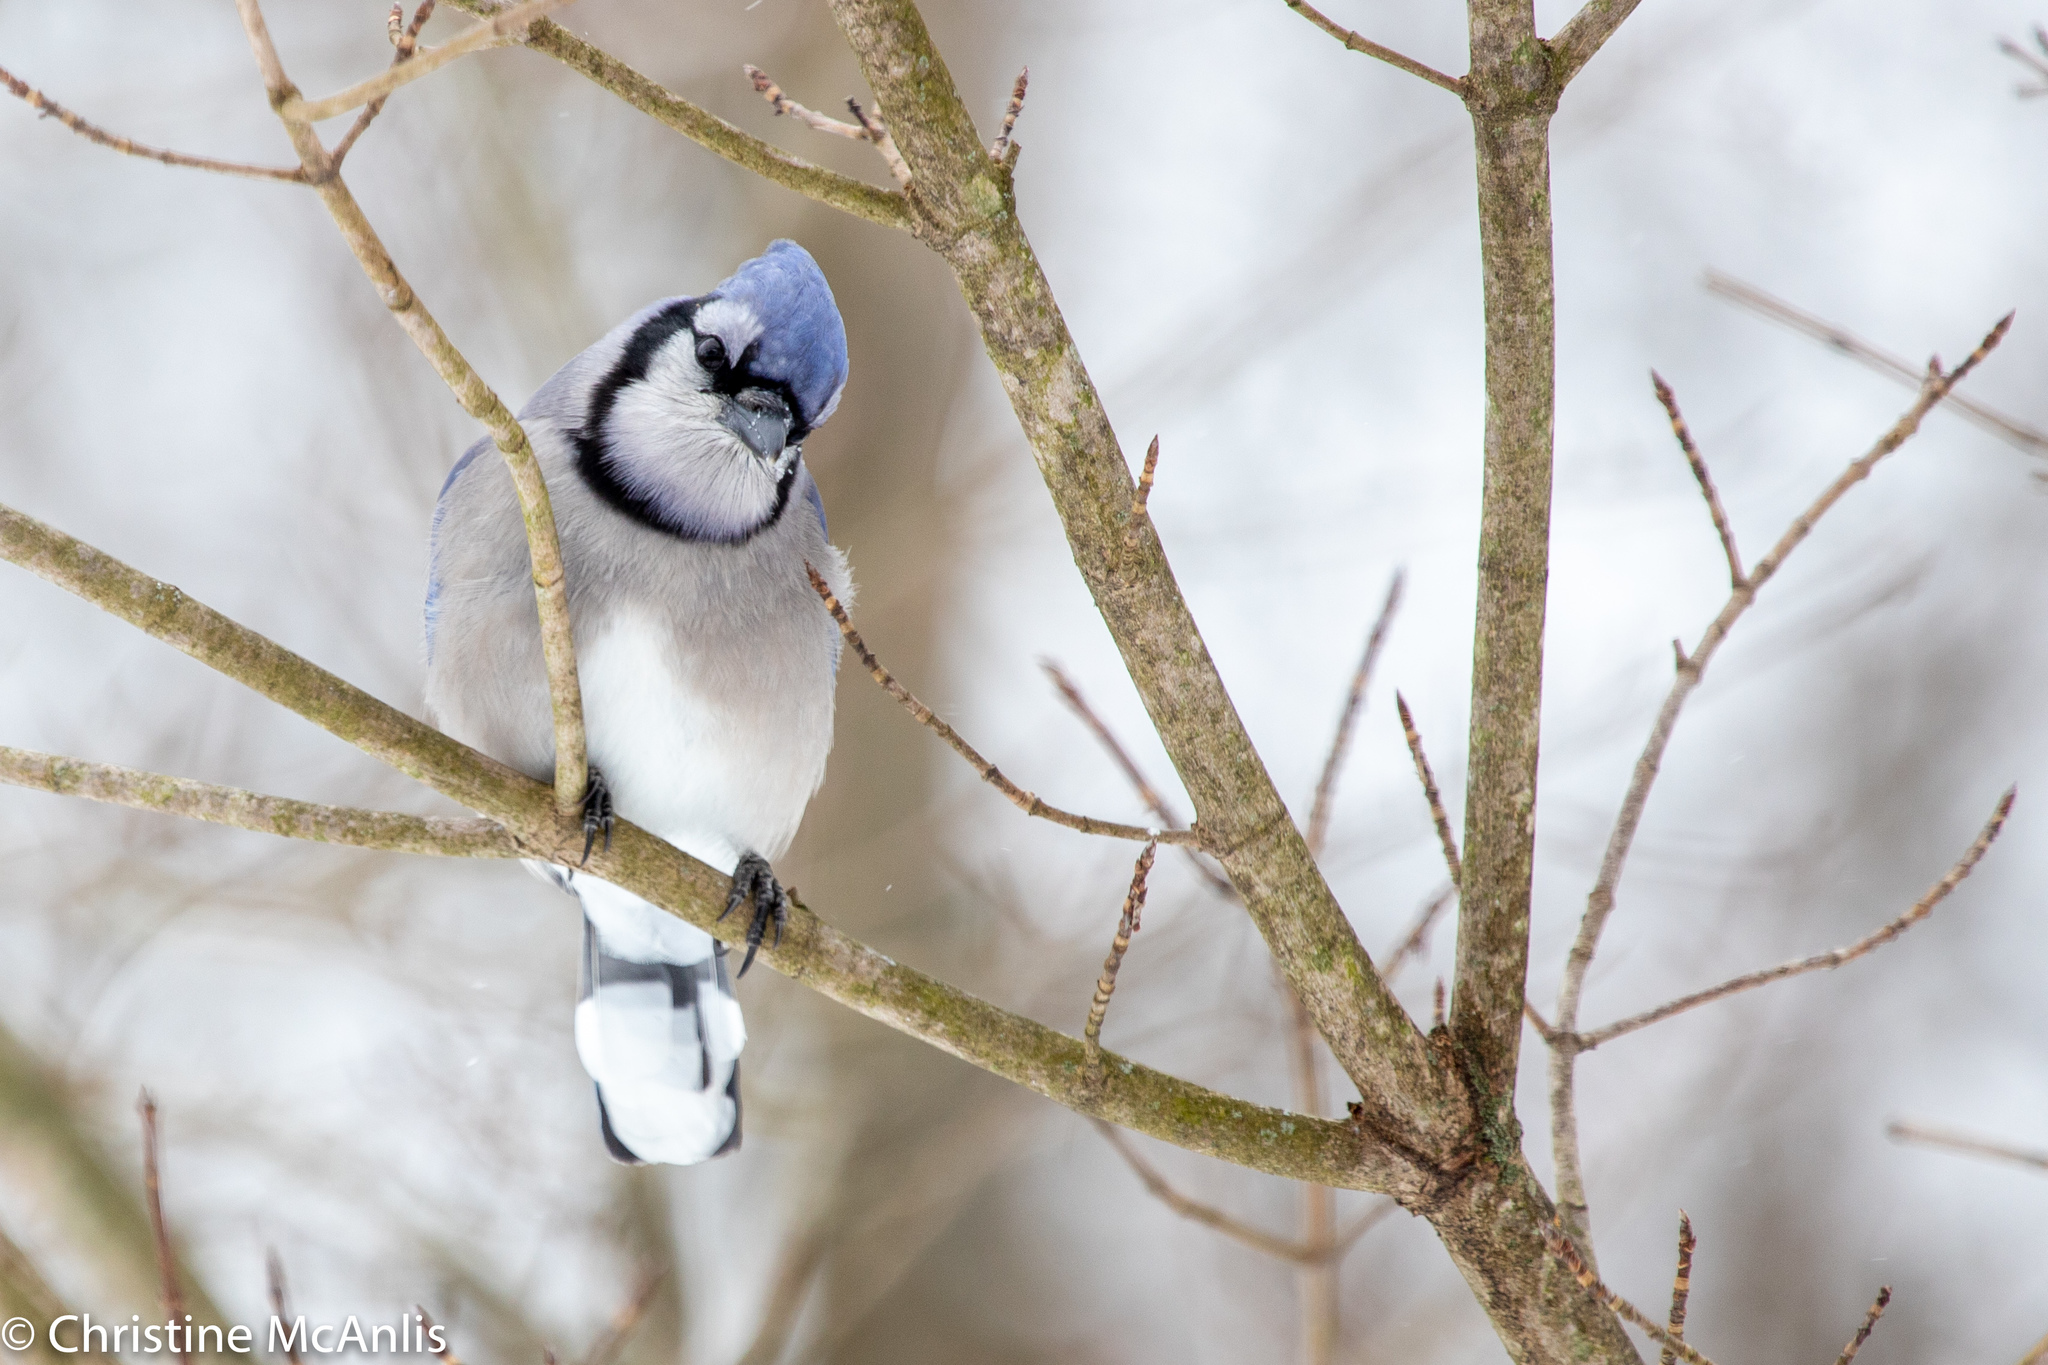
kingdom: Animalia
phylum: Chordata
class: Aves
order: Passeriformes
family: Corvidae
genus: Cyanocitta
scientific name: Cyanocitta cristata
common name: Blue jay
